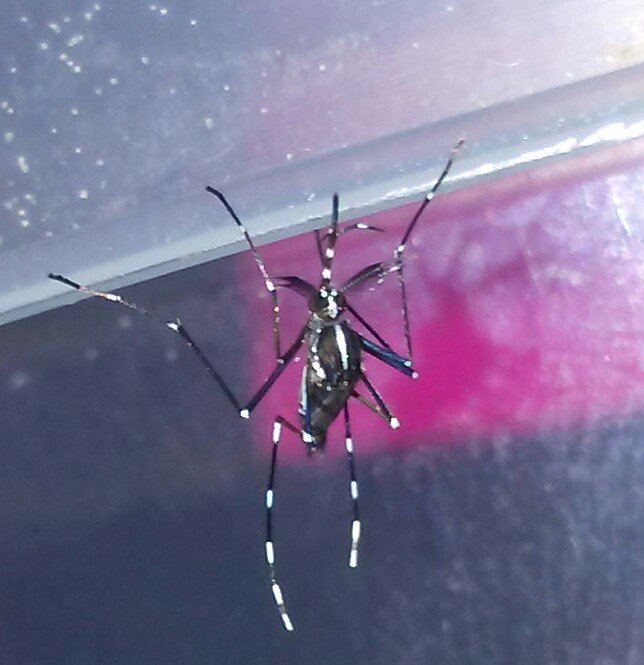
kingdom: Animalia
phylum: Arthropoda
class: Insecta
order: Diptera
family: Culicidae
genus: Aedes
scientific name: Aedes albopictus
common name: Tiger mosquito
